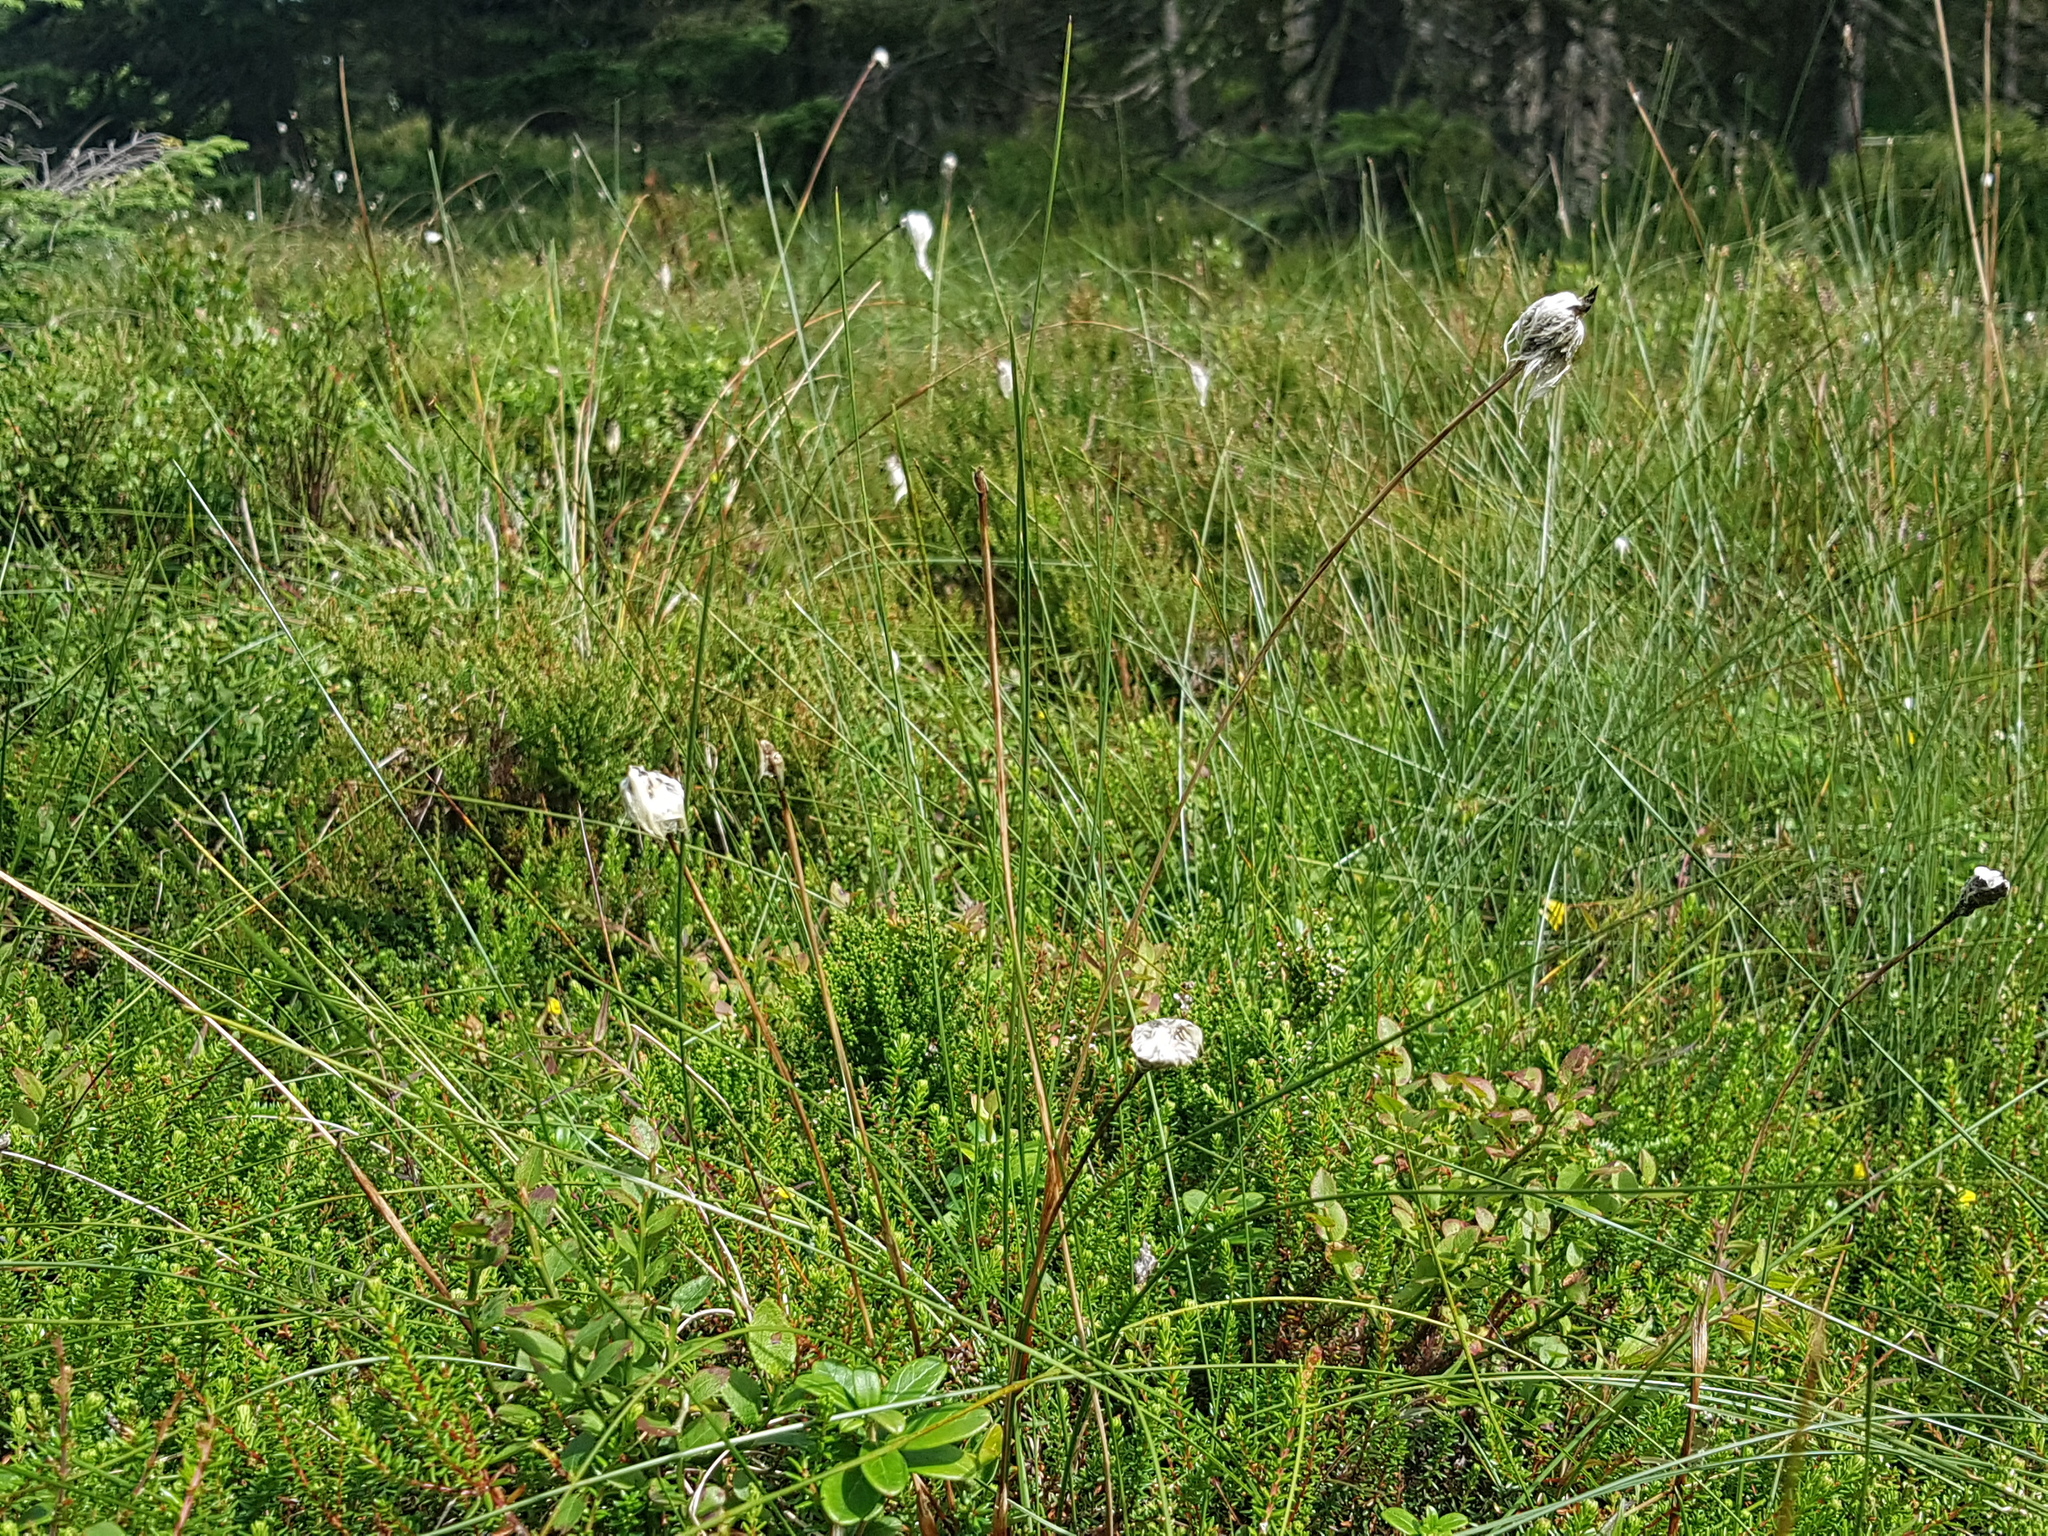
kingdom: Plantae
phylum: Tracheophyta
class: Liliopsida
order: Poales
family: Cyperaceae
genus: Eriophorum
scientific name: Eriophorum vaginatum
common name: Hare's-tail cottongrass
